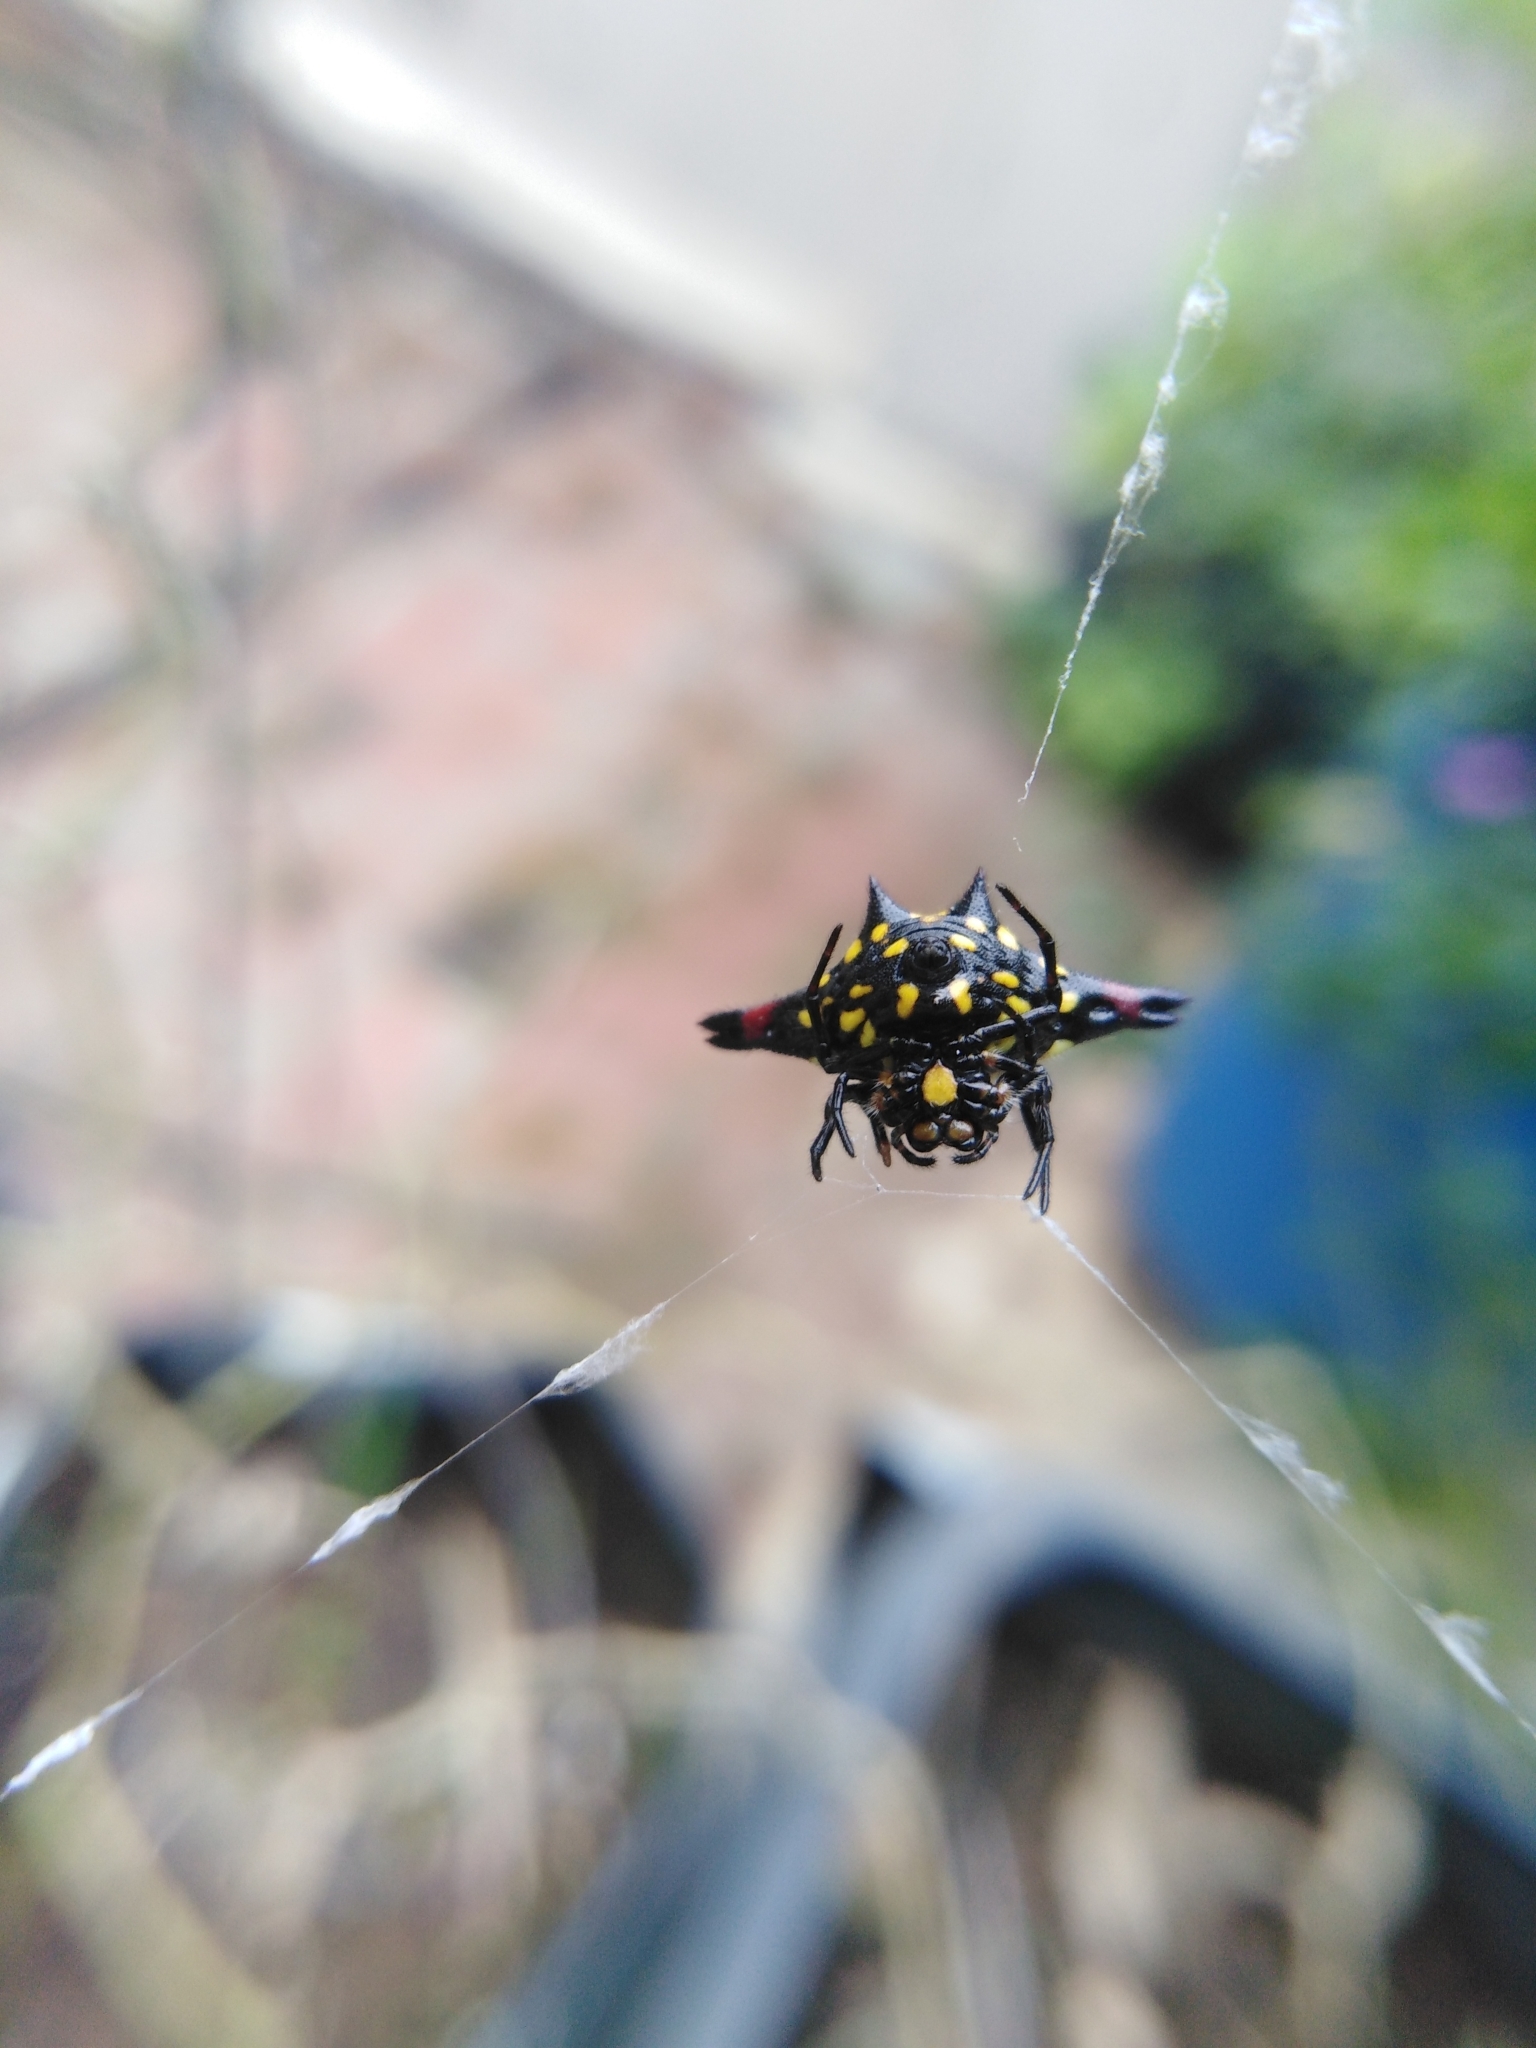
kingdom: Animalia
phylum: Arthropoda
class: Arachnida
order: Araneae
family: Araneidae
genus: Gasteracantha
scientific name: Gasteracantha geminata
